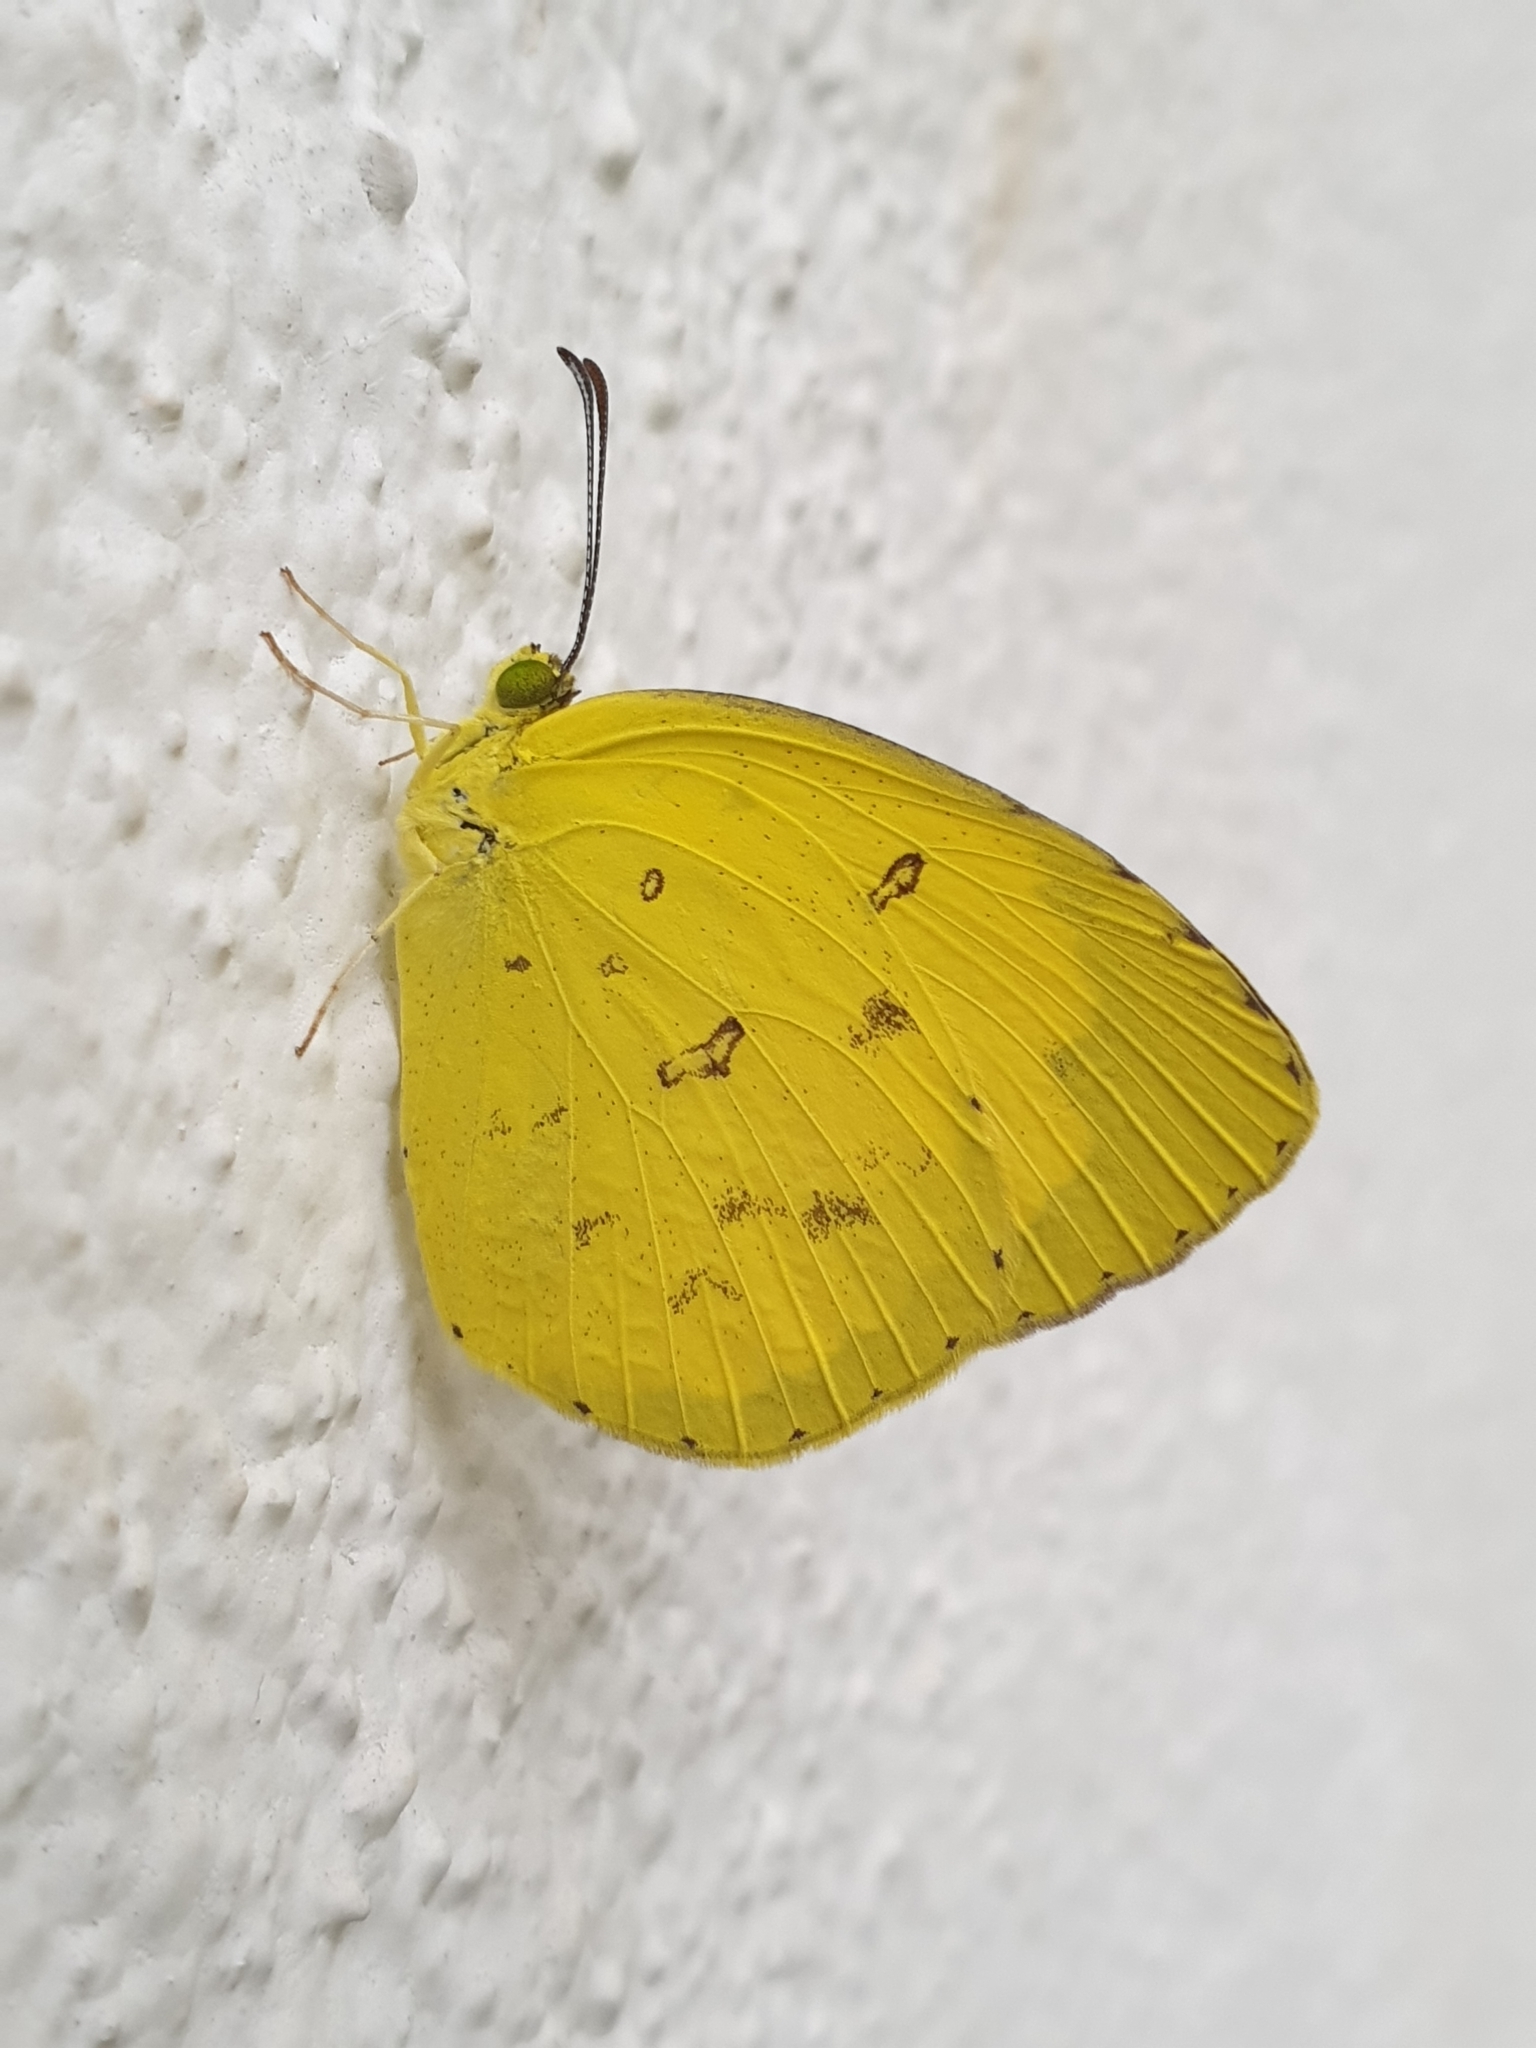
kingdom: Animalia
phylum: Arthropoda
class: Insecta
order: Lepidoptera
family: Pieridae
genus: Eurema
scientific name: Eurema hecabe
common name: Pale grass yellow
